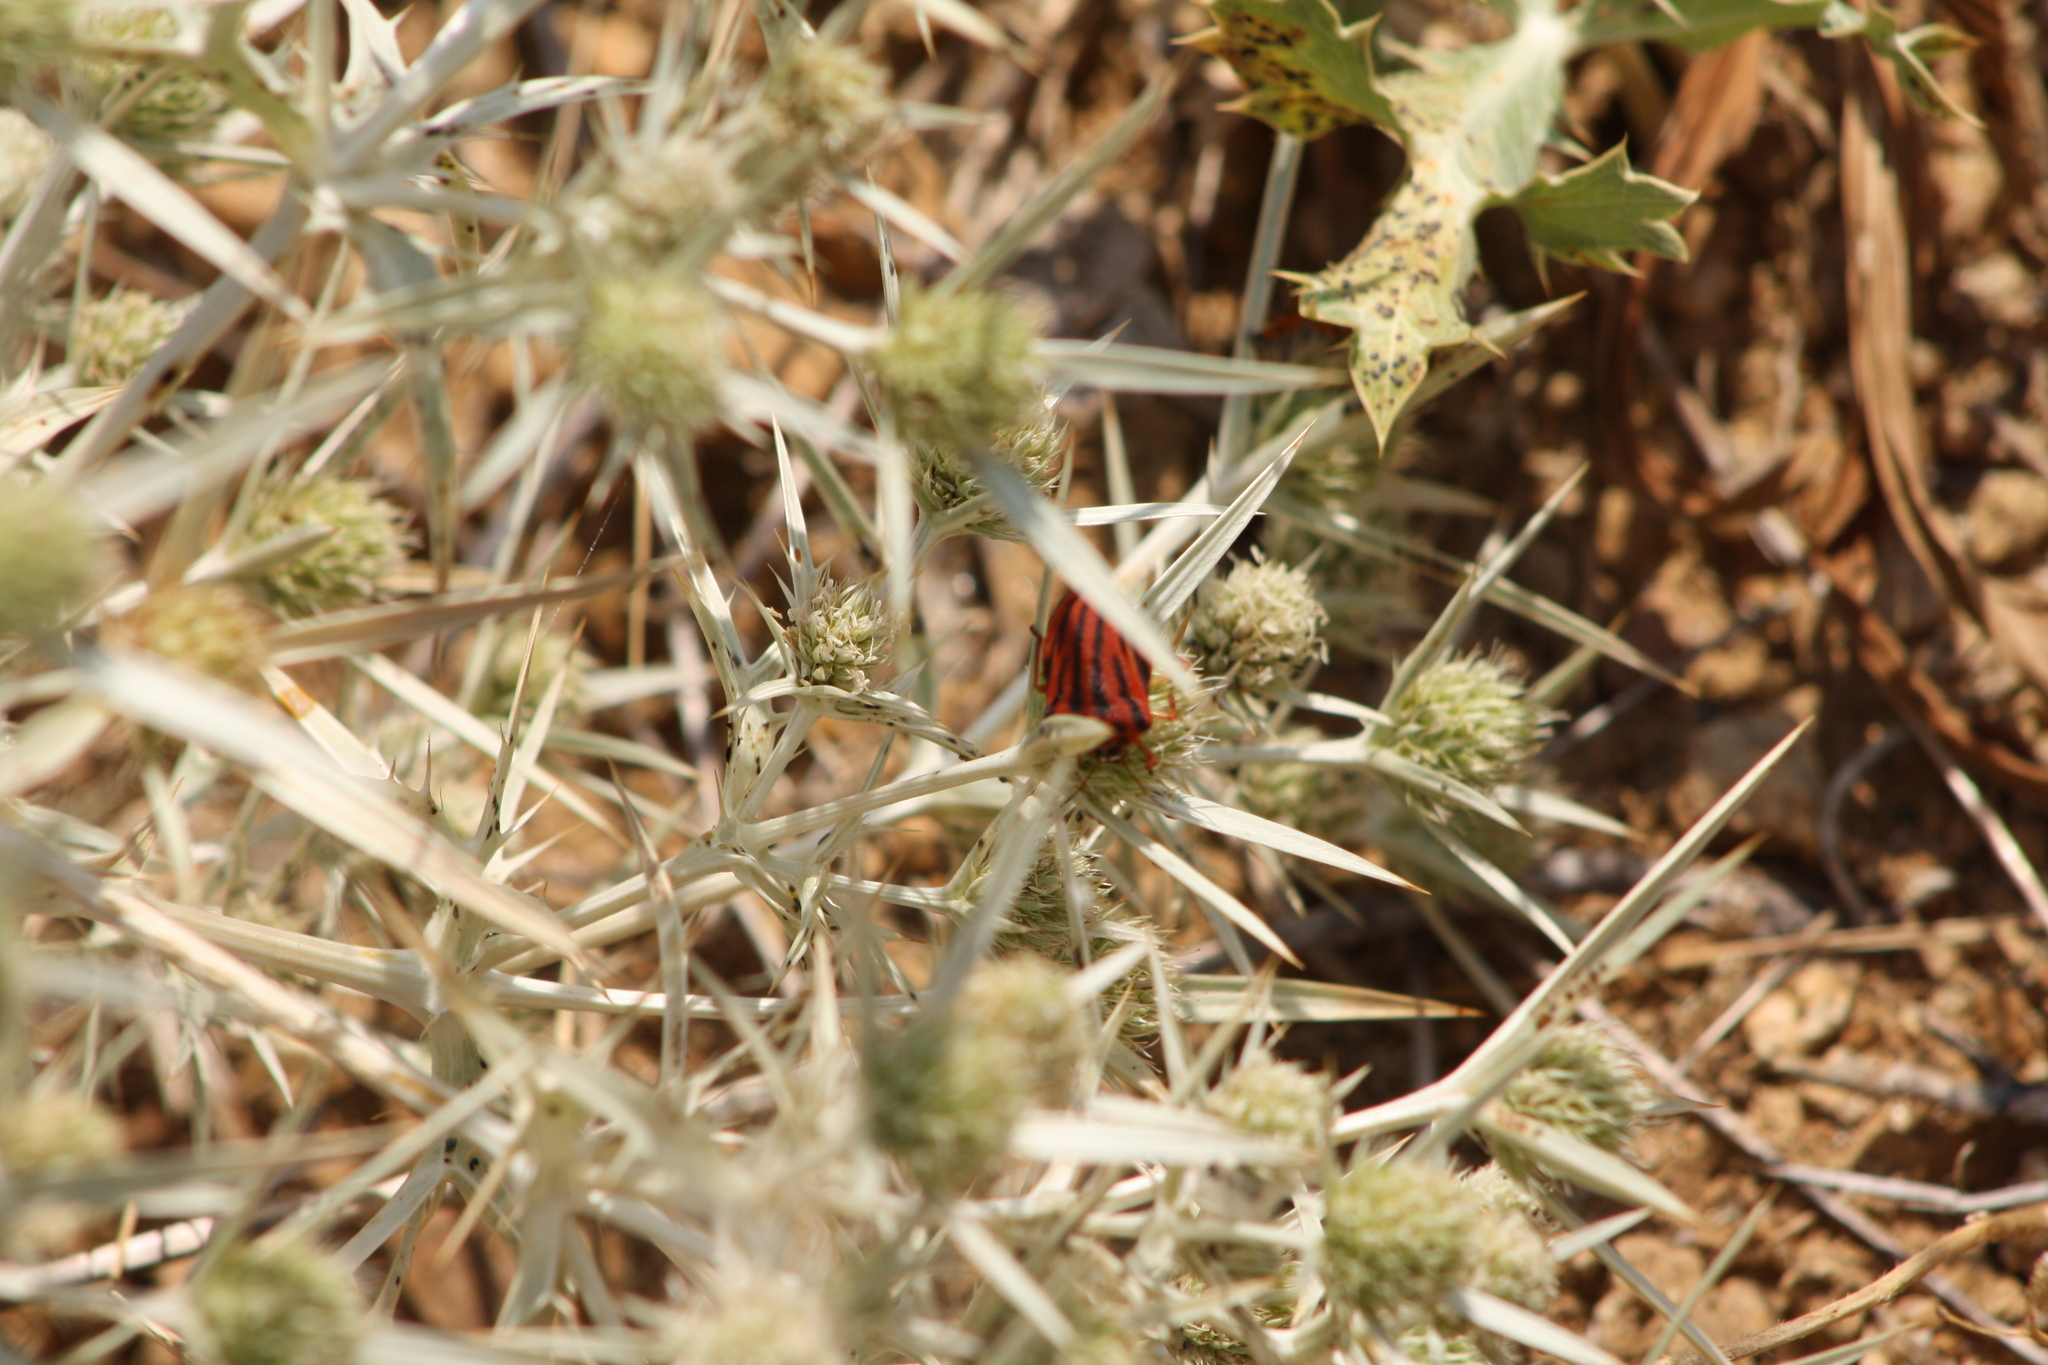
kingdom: Animalia
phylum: Arthropoda
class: Insecta
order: Hemiptera
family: Pentatomidae
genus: Graphosoma
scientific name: Graphosoma semipunctatum
